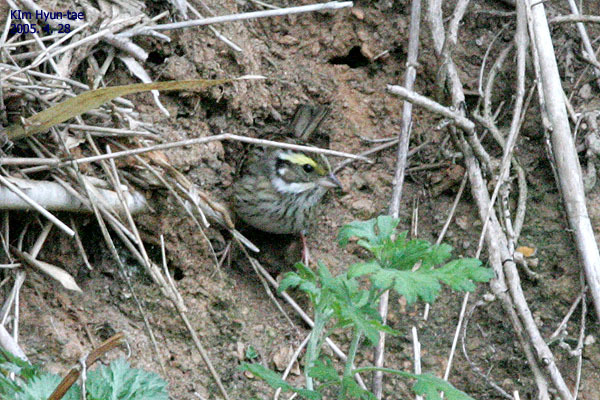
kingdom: Animalia
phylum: Chordata
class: Aves
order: Passeriformes
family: Emberizidae
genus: Emberiza
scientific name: Emberiza chrysophrys
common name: Yellow-browed bunting
